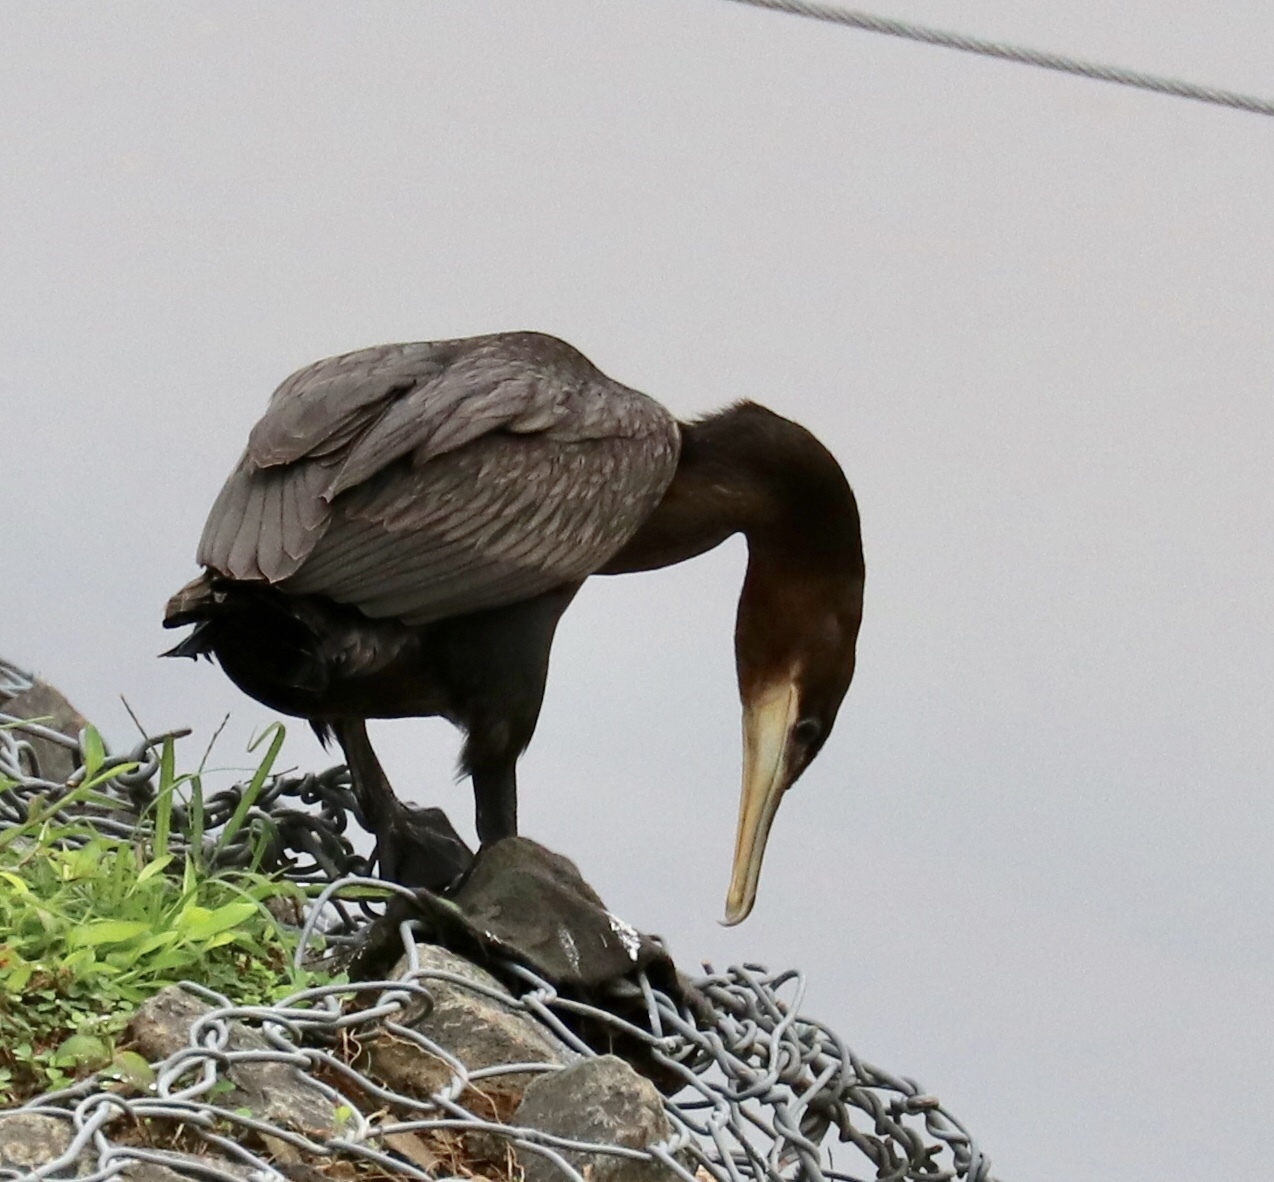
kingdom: Animalia
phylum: Chordata
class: Aves
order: Suliformes
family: Phalacrocoracidae
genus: Phalacrocorax
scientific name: Phalacrocorax brasilianus
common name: Neotropic cormorant
